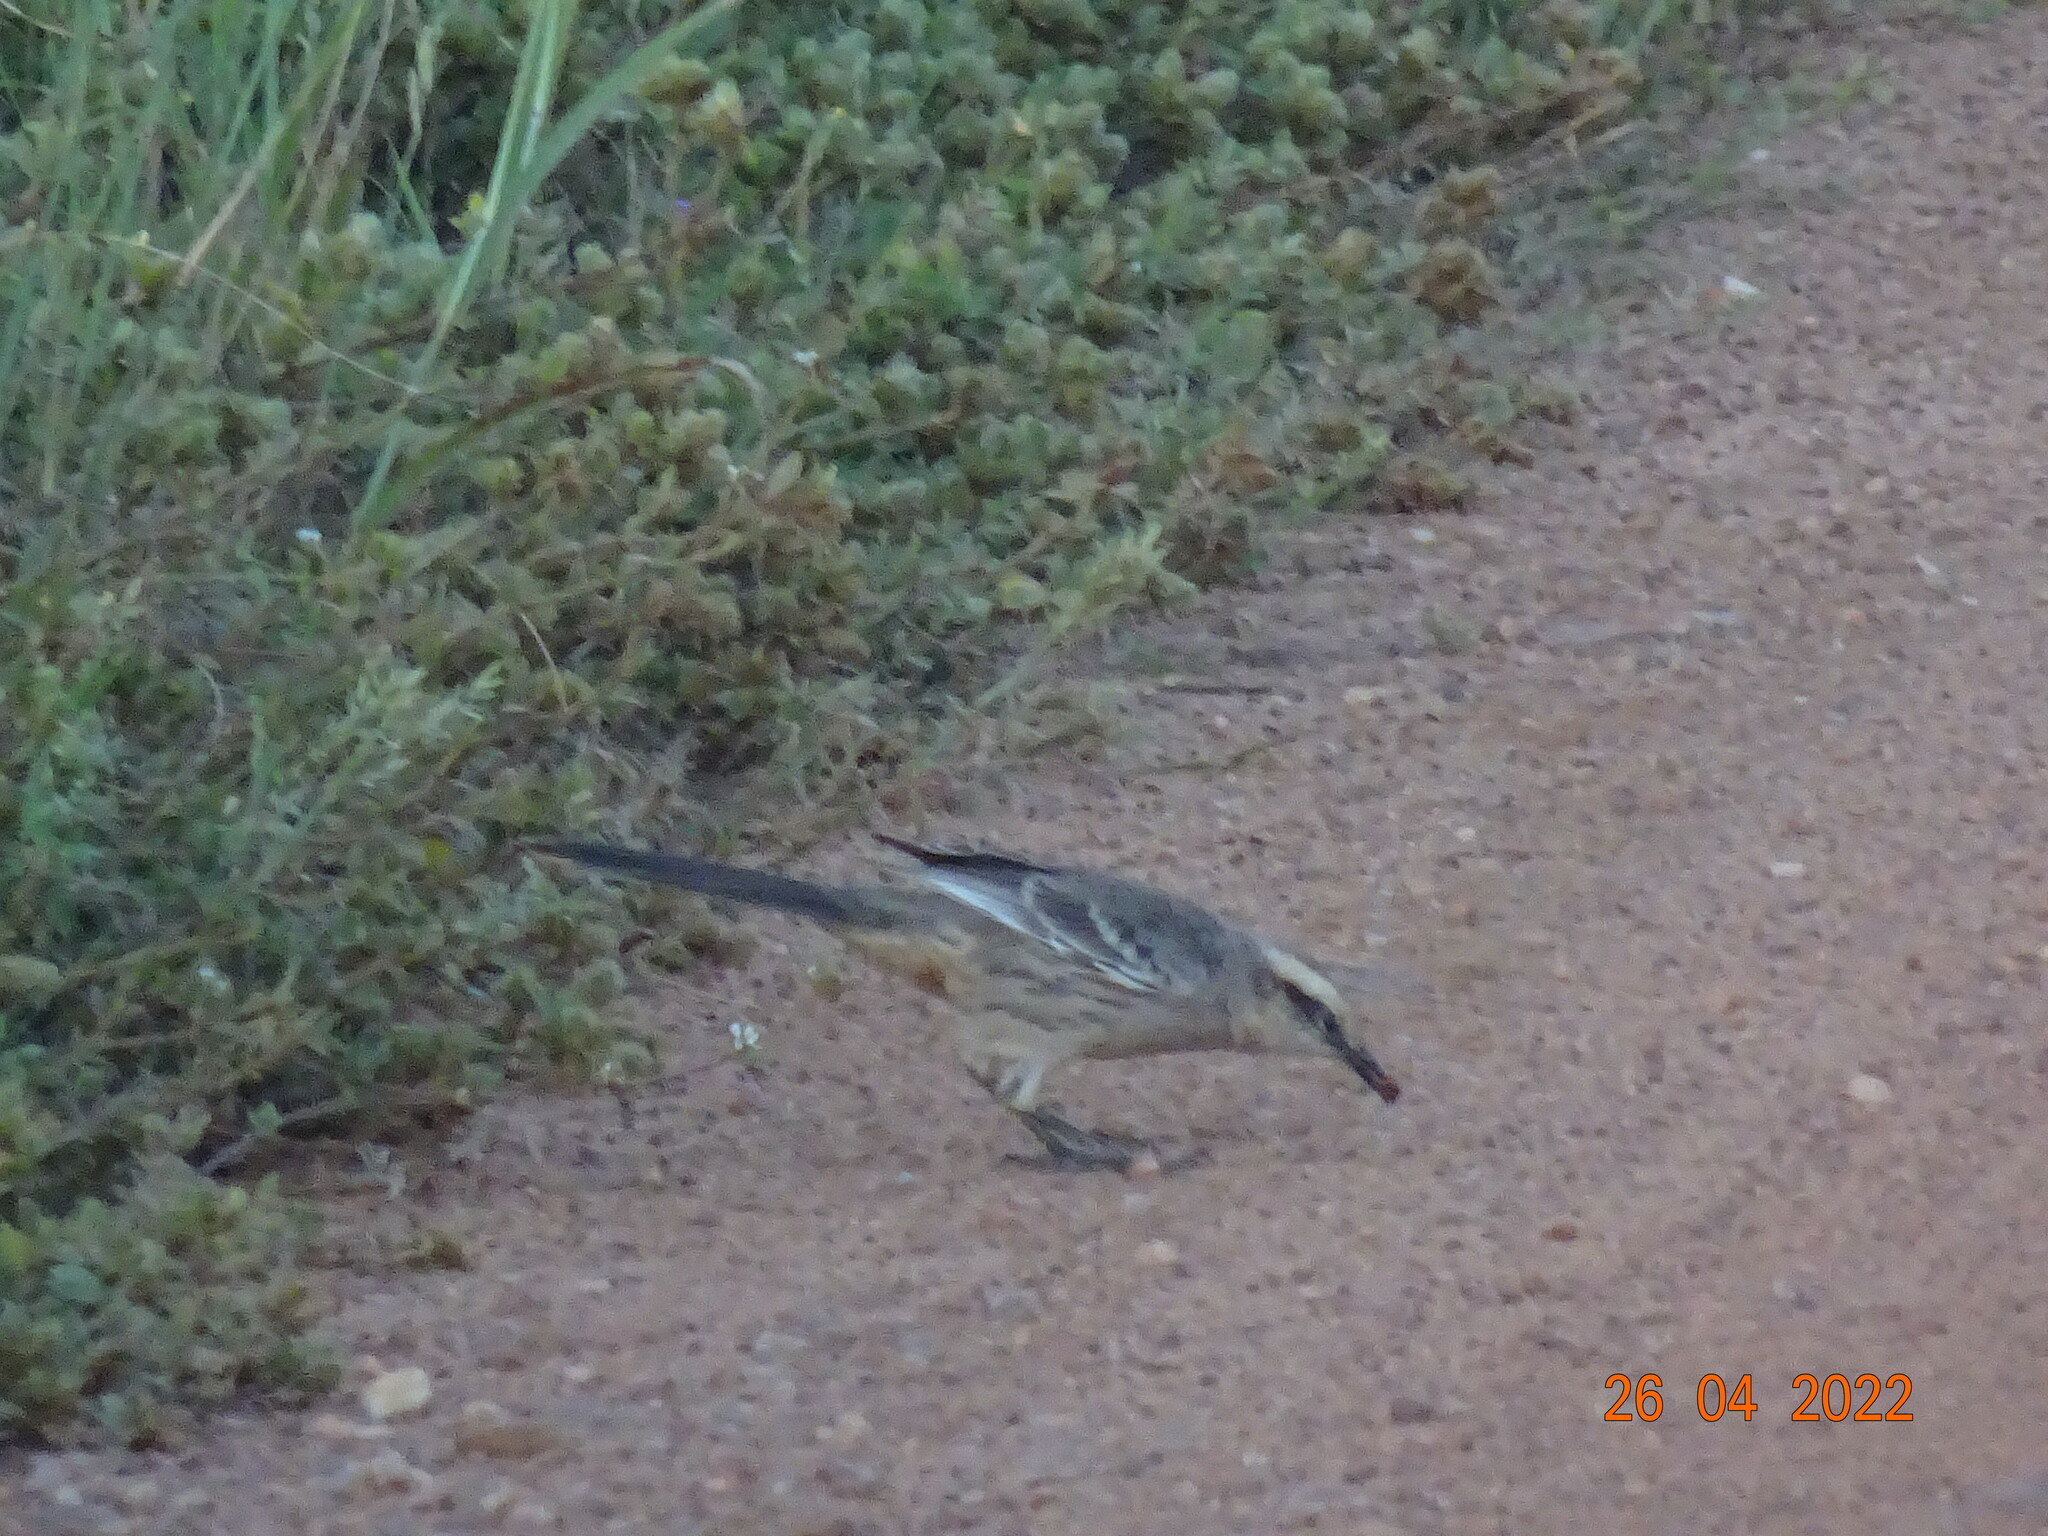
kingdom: Animalia
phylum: Chordata
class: Aves
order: Passeriformes
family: Mimidae
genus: Mimus
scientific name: Mimus saturninus
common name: Chalk-browed mockingbird
